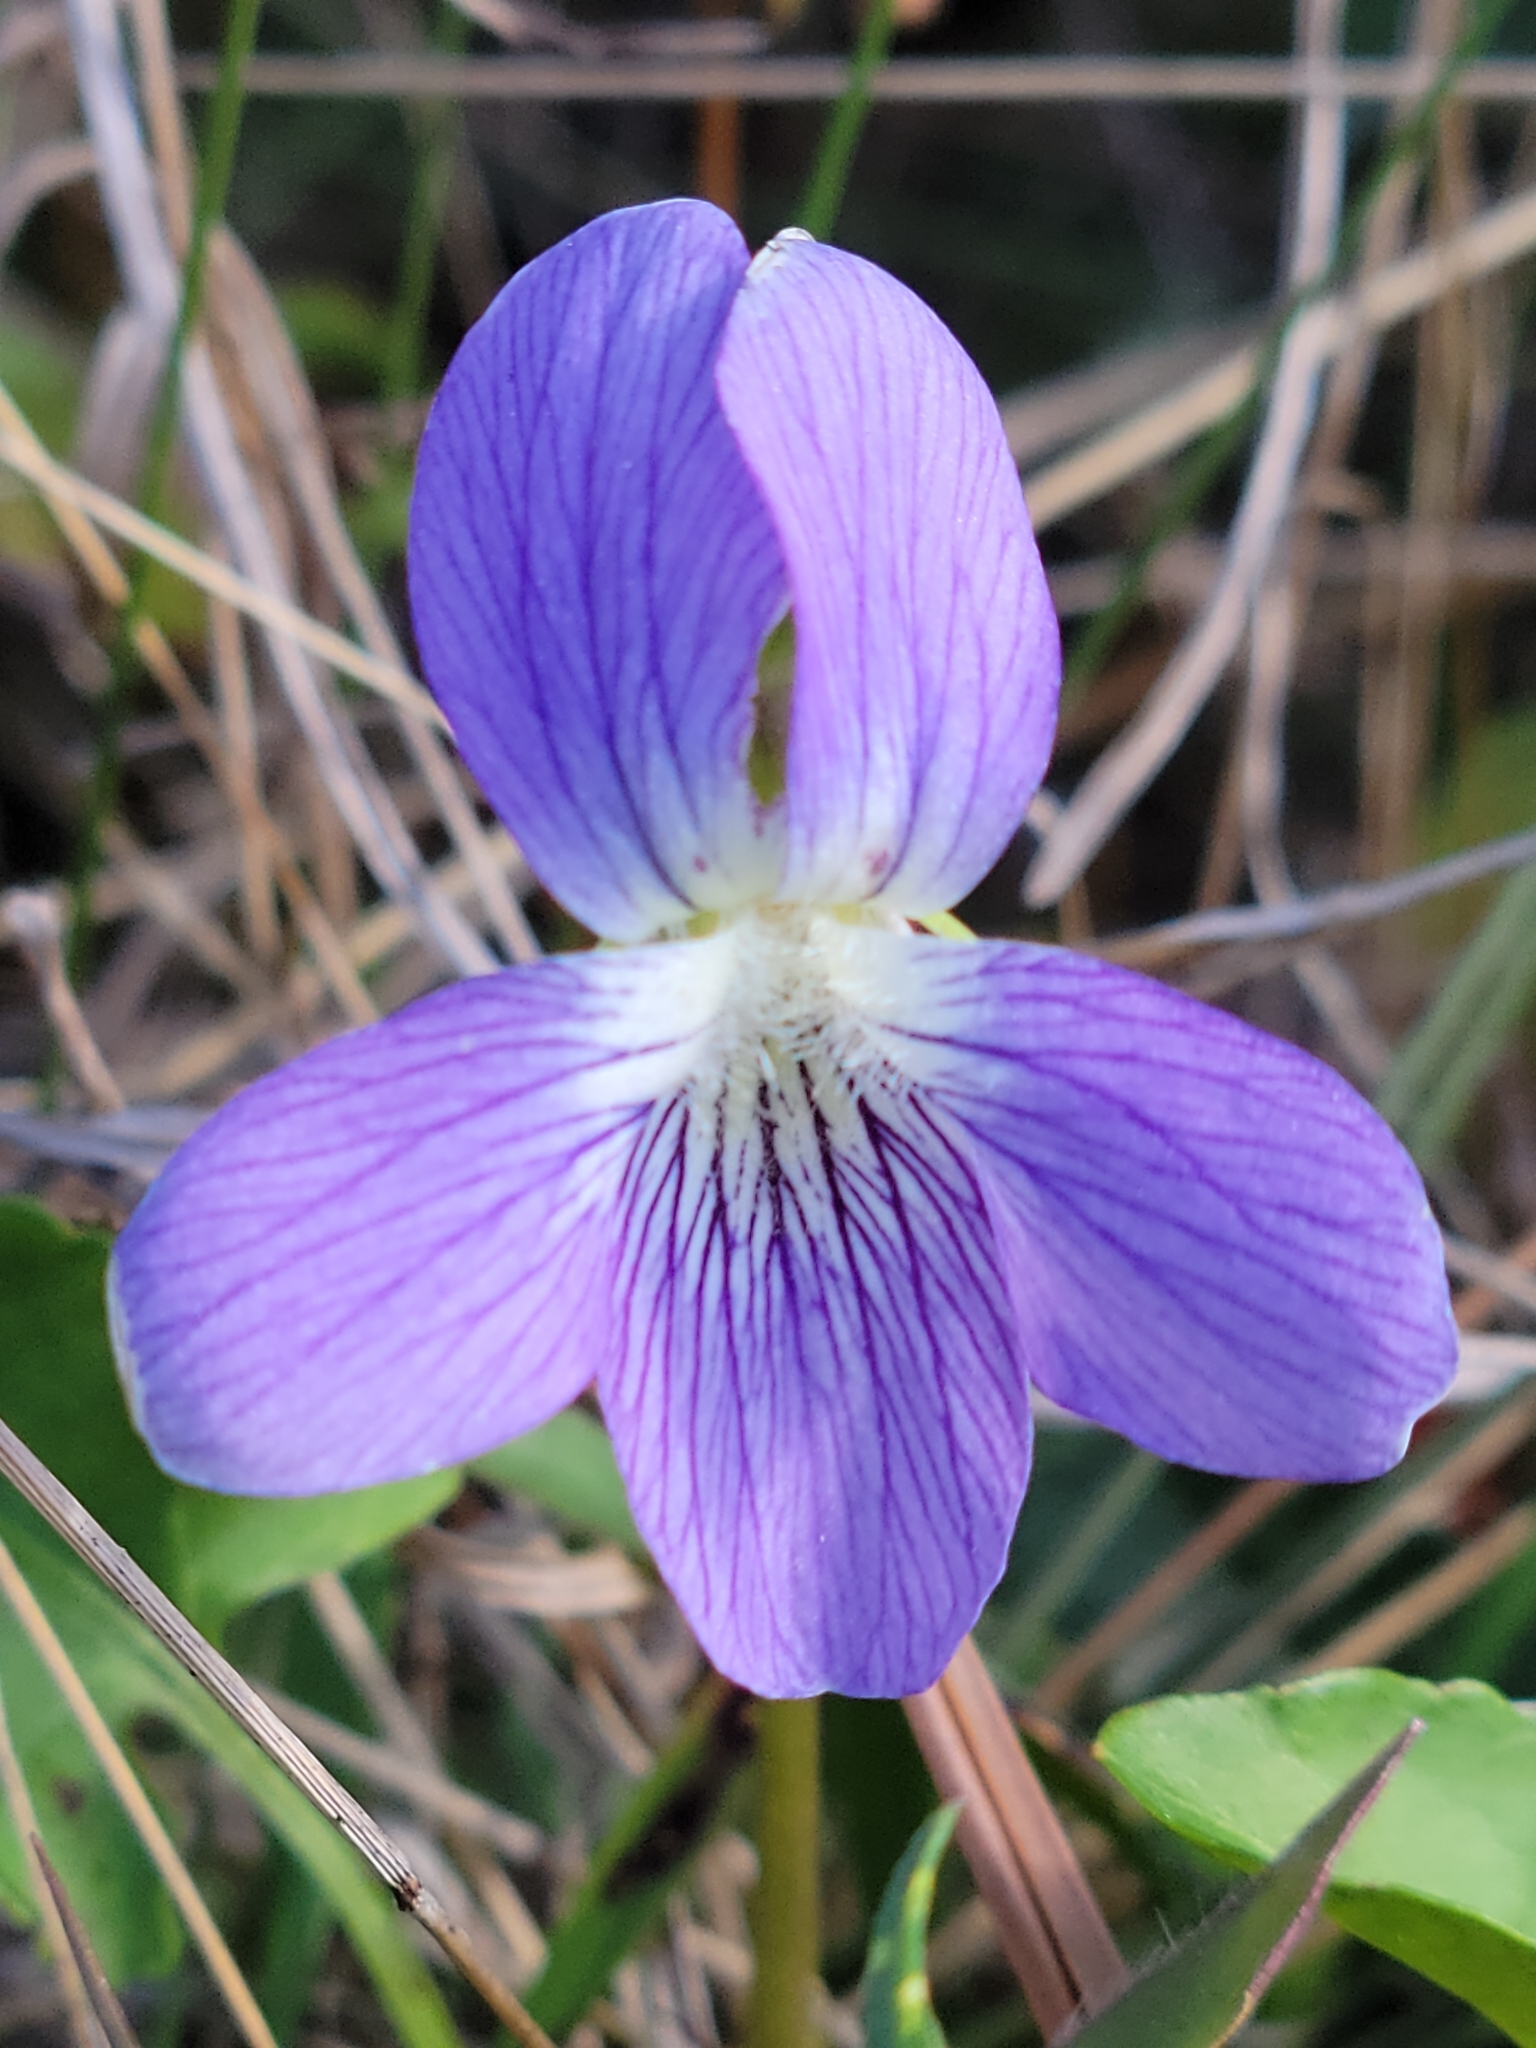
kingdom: Plantae
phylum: Tracheophyta
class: Magnoliopsida
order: Malpighiales
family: Violaceae
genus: Viola
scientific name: Viola septemloba
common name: Southern coast violet
